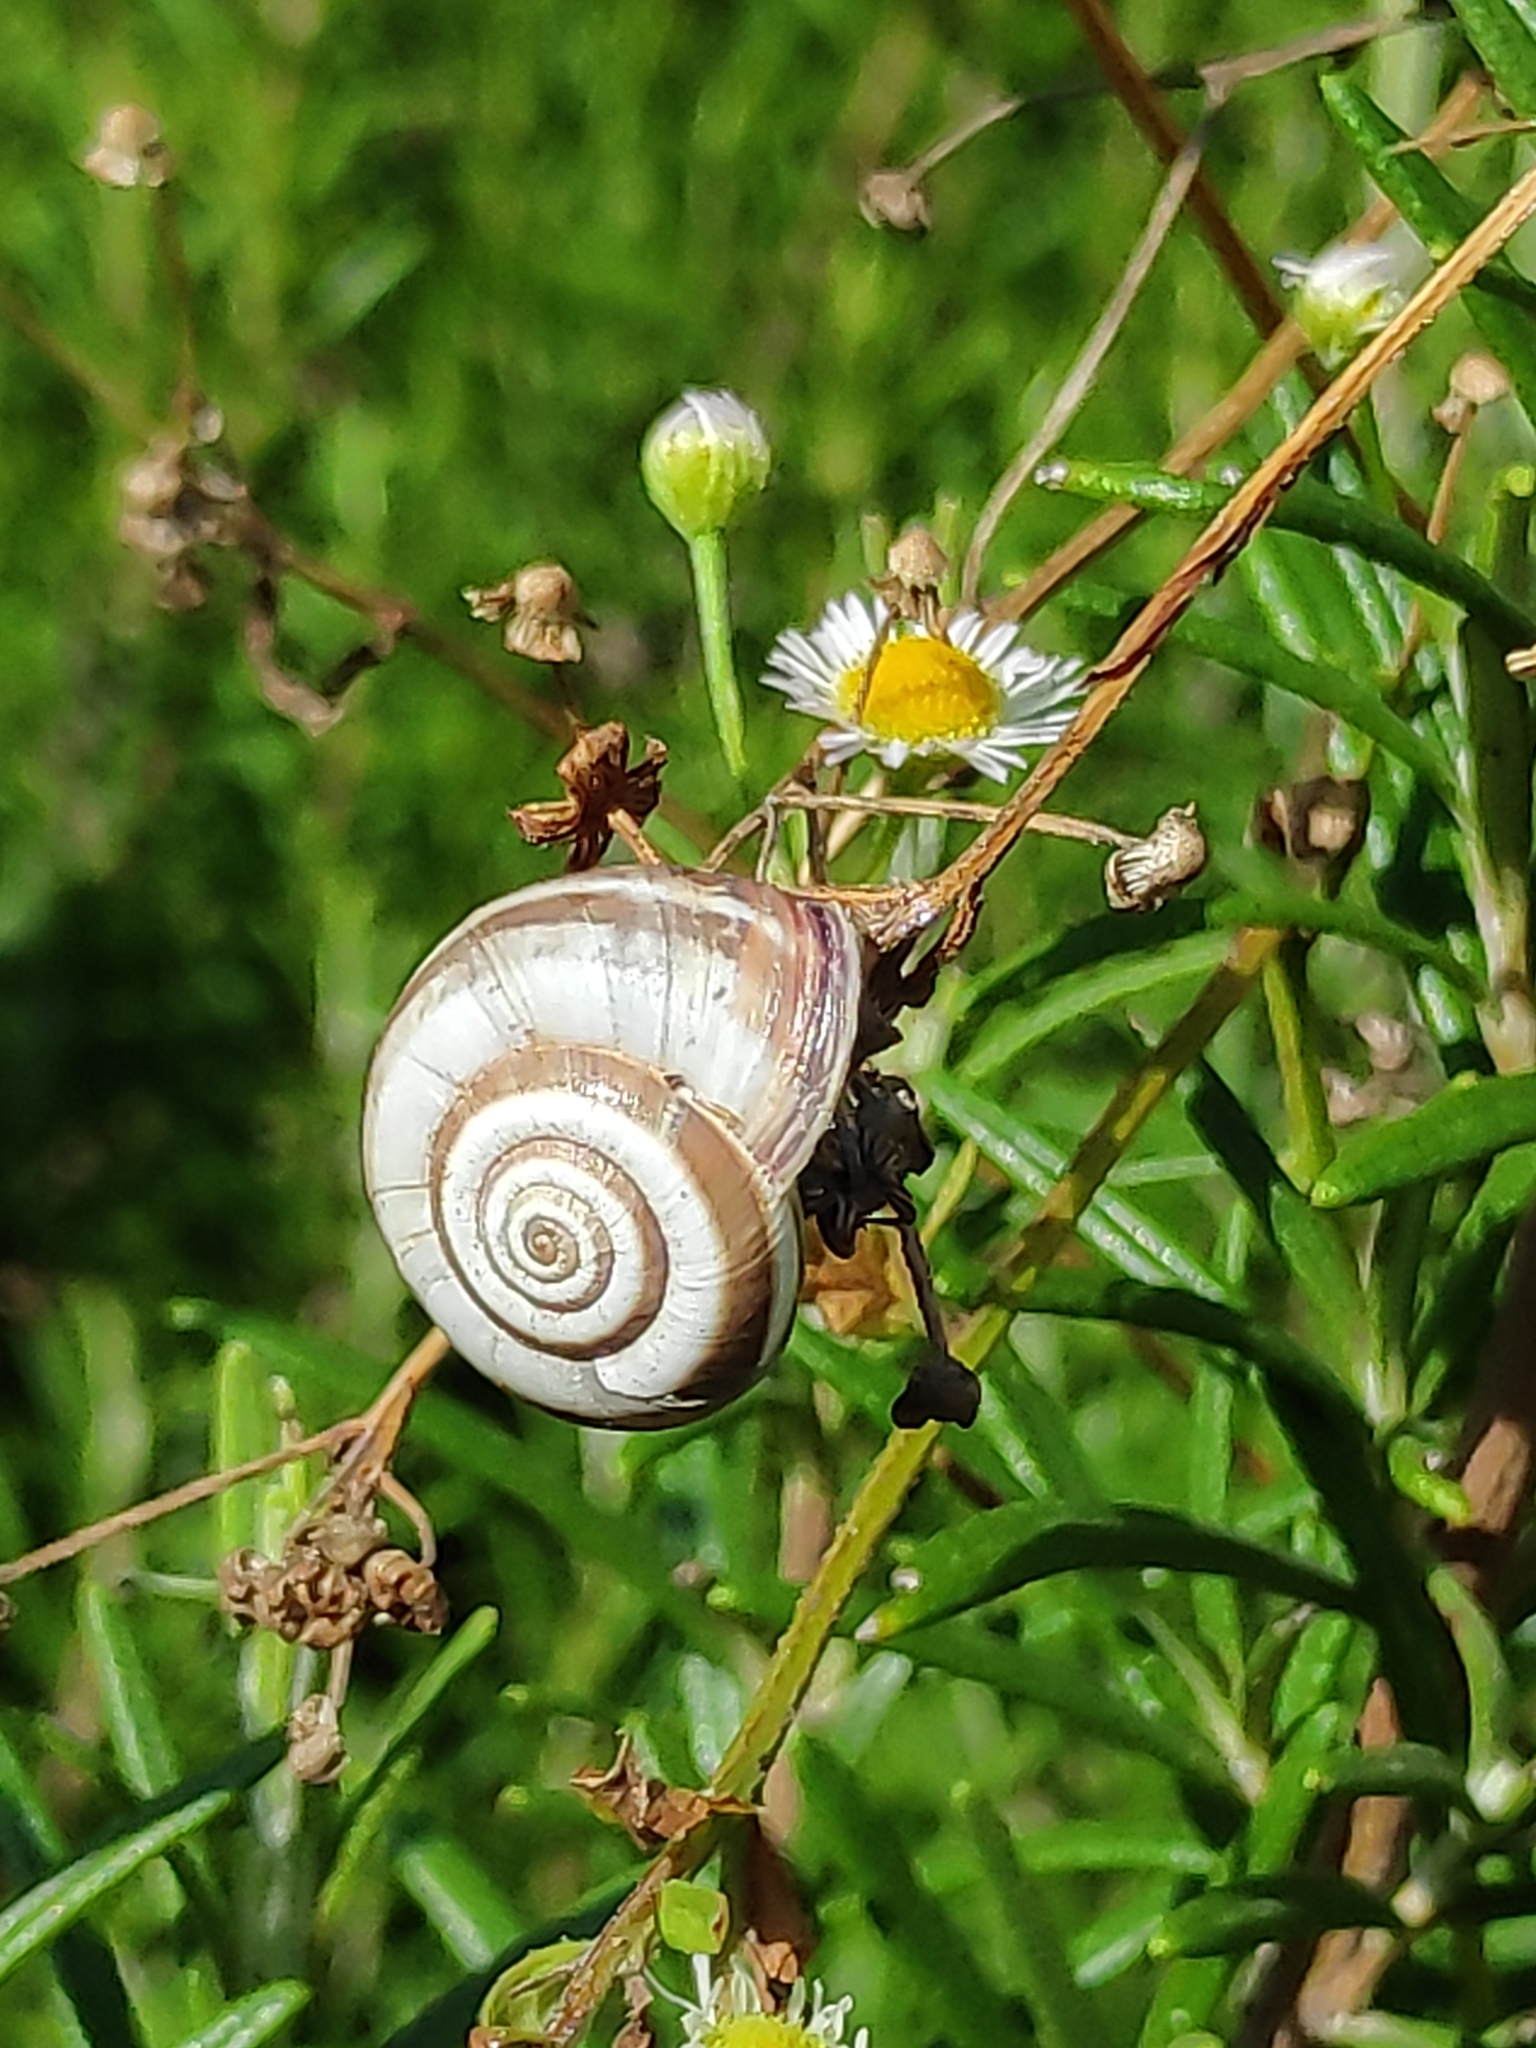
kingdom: Animalia
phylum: Mollusca
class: Gastropoda
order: Stylommatophora
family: Geomitridae
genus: Cernuella
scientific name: Cernuella neglecta
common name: Neglected dune snail
